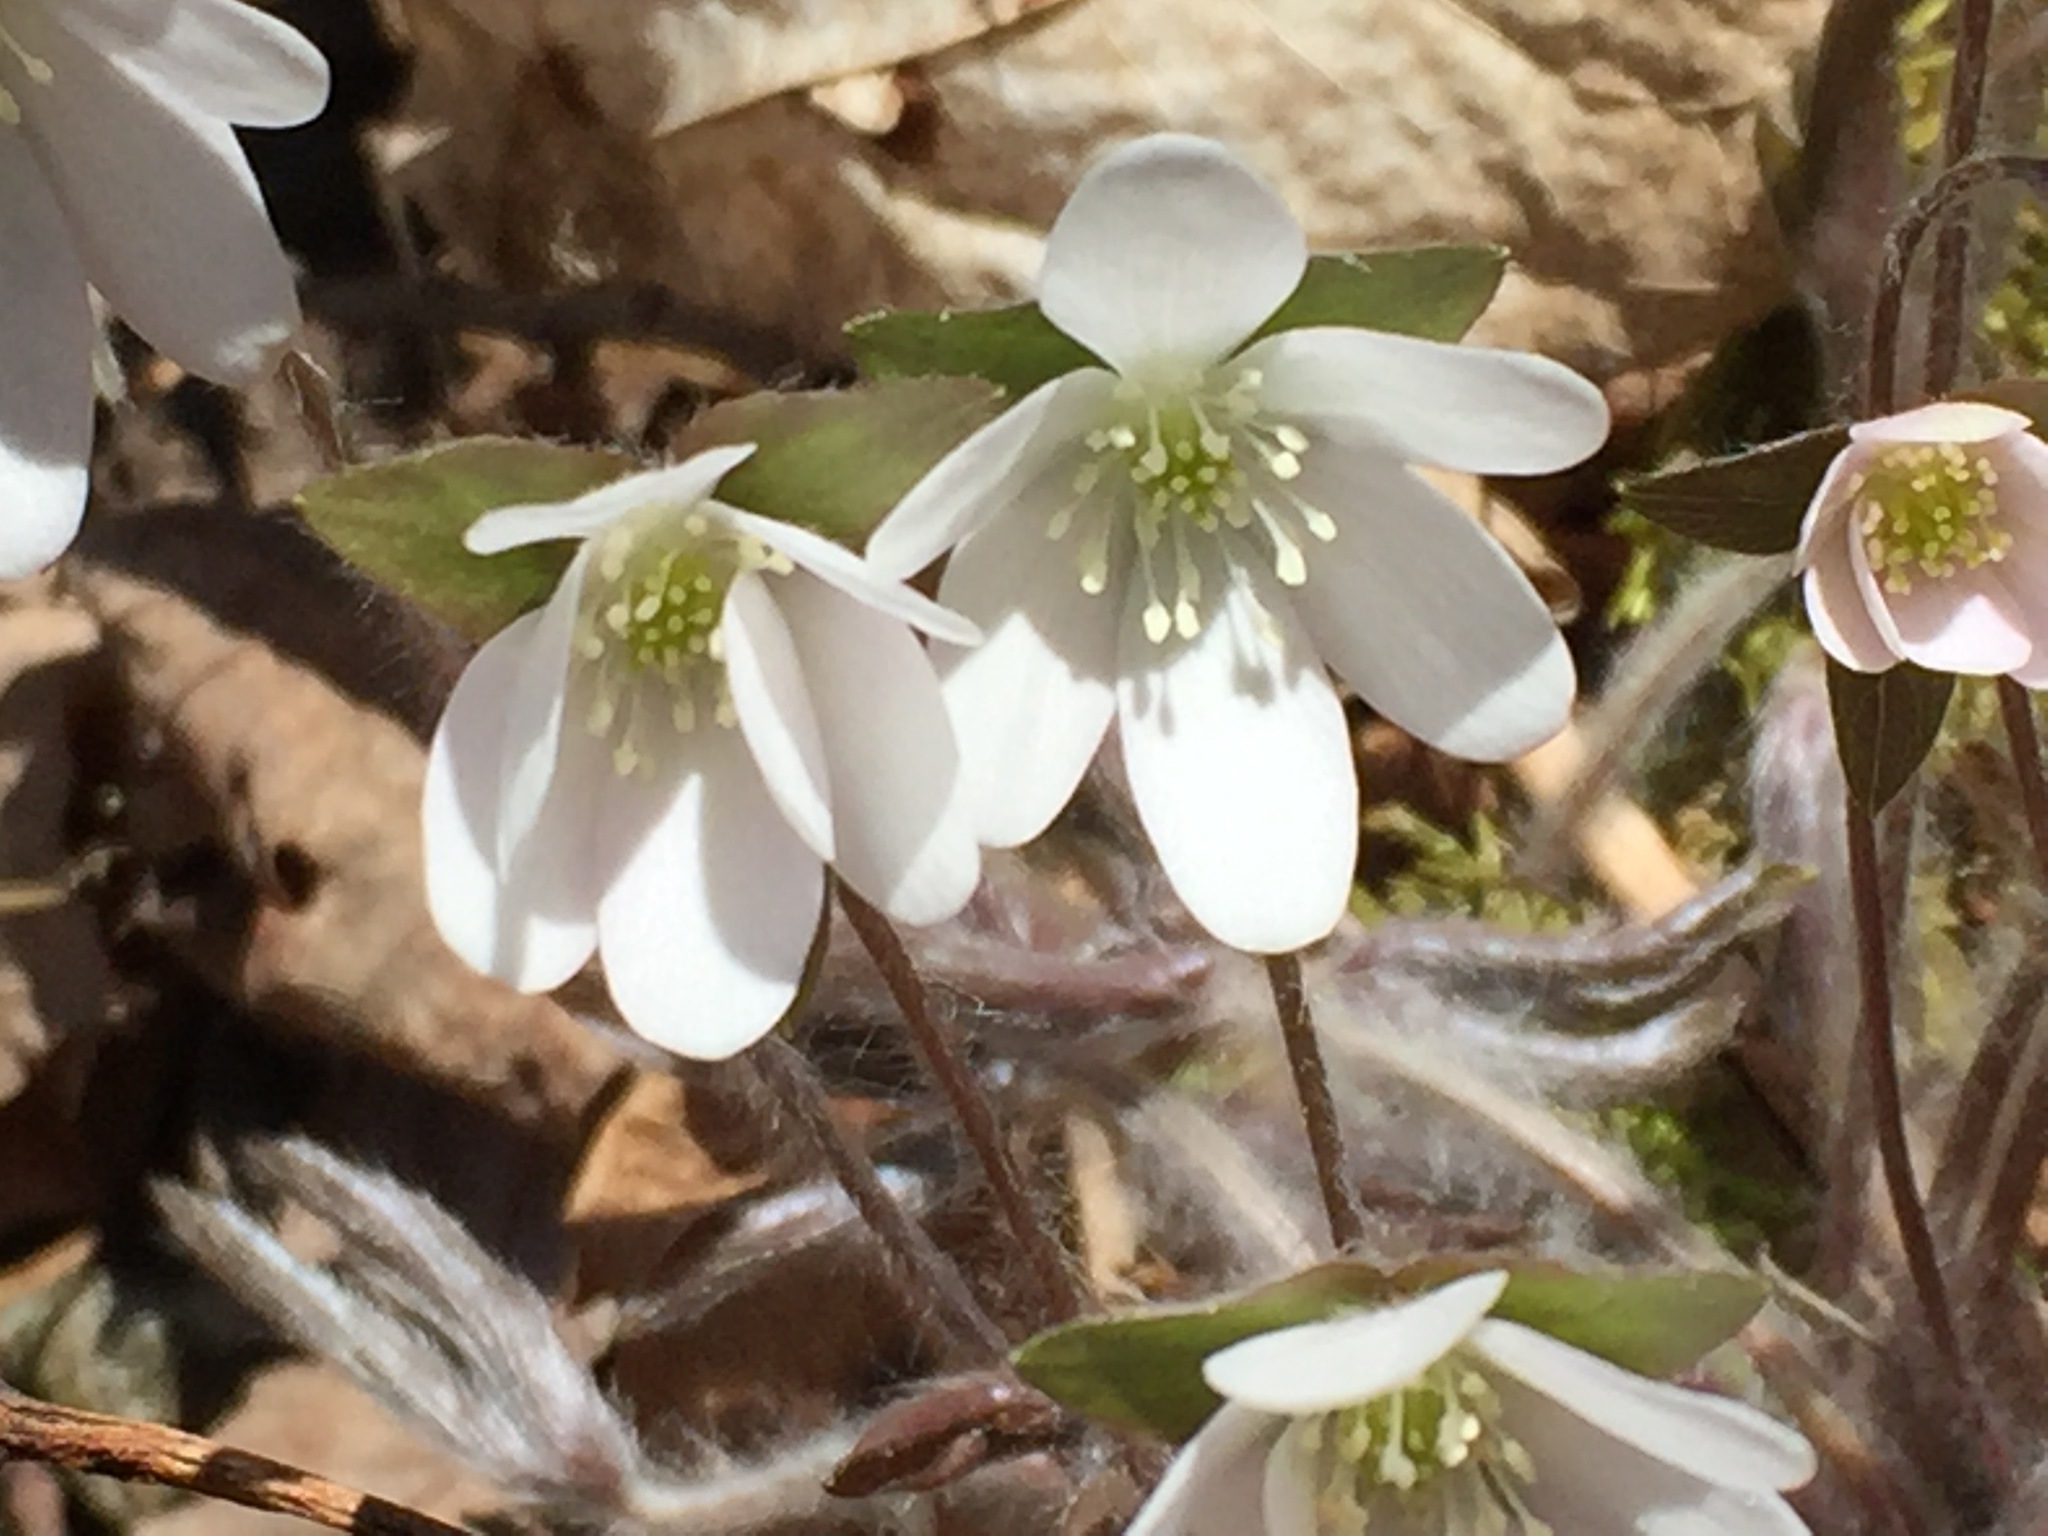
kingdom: Plantae
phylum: Tracheophyta
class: Magnoliopsida
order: Ranunculales
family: Ranunculaceae
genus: Hepatica
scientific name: Hepatica acutiloba
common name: Sharp-lobed hepatica
